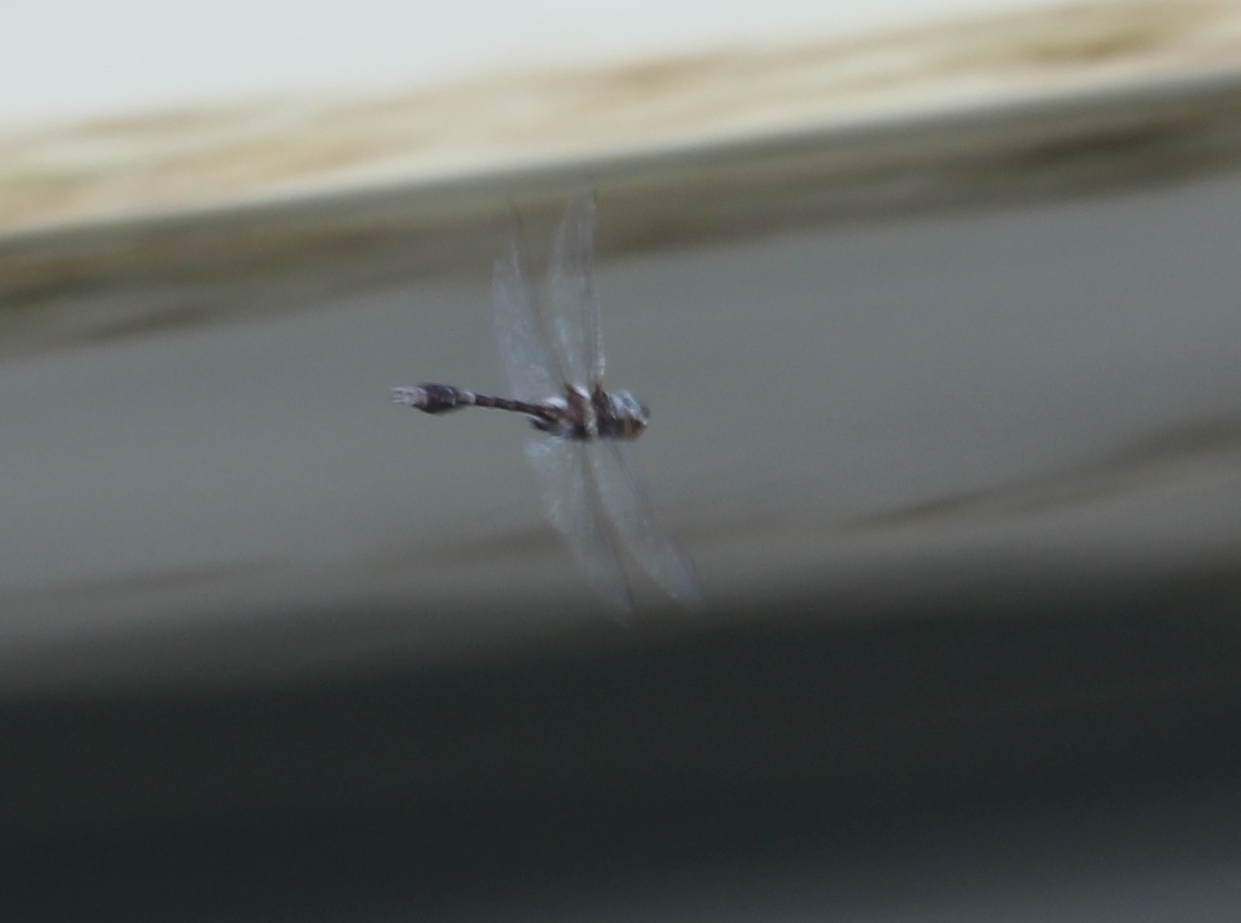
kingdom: Animalia
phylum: Arthropoda
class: Insecta
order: Odonata
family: Macromiidae
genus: Didymops
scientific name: Didymops transversa
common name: Stream cruiser
